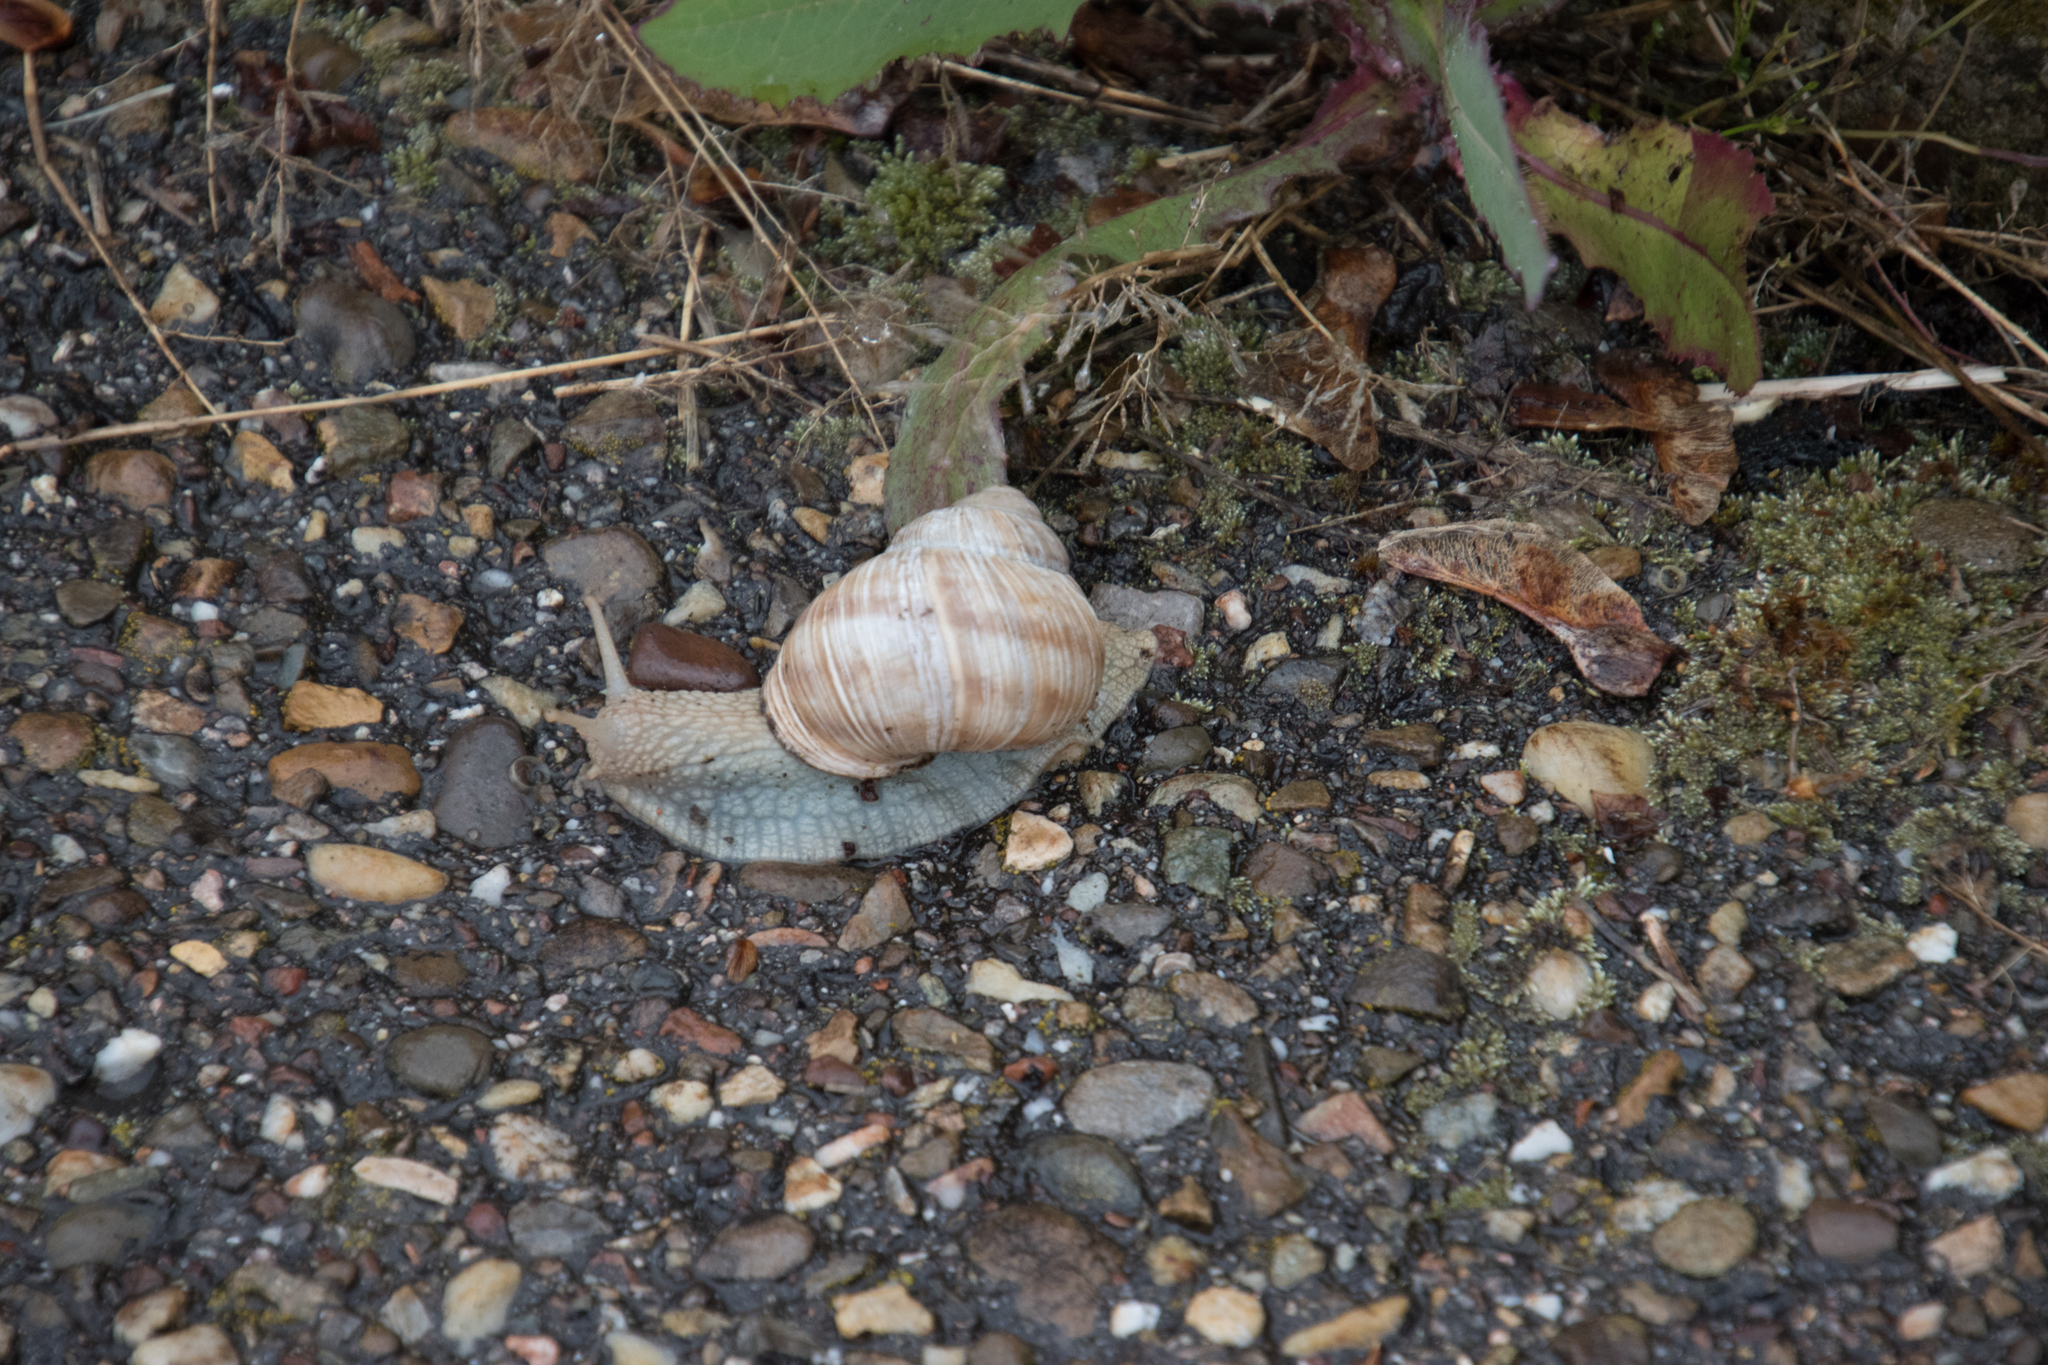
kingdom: Animalia
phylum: Mollusca
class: Gastropoda
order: Stylommatophora
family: Helicidae
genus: Helix
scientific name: Helix pomatia
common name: Roman snail
